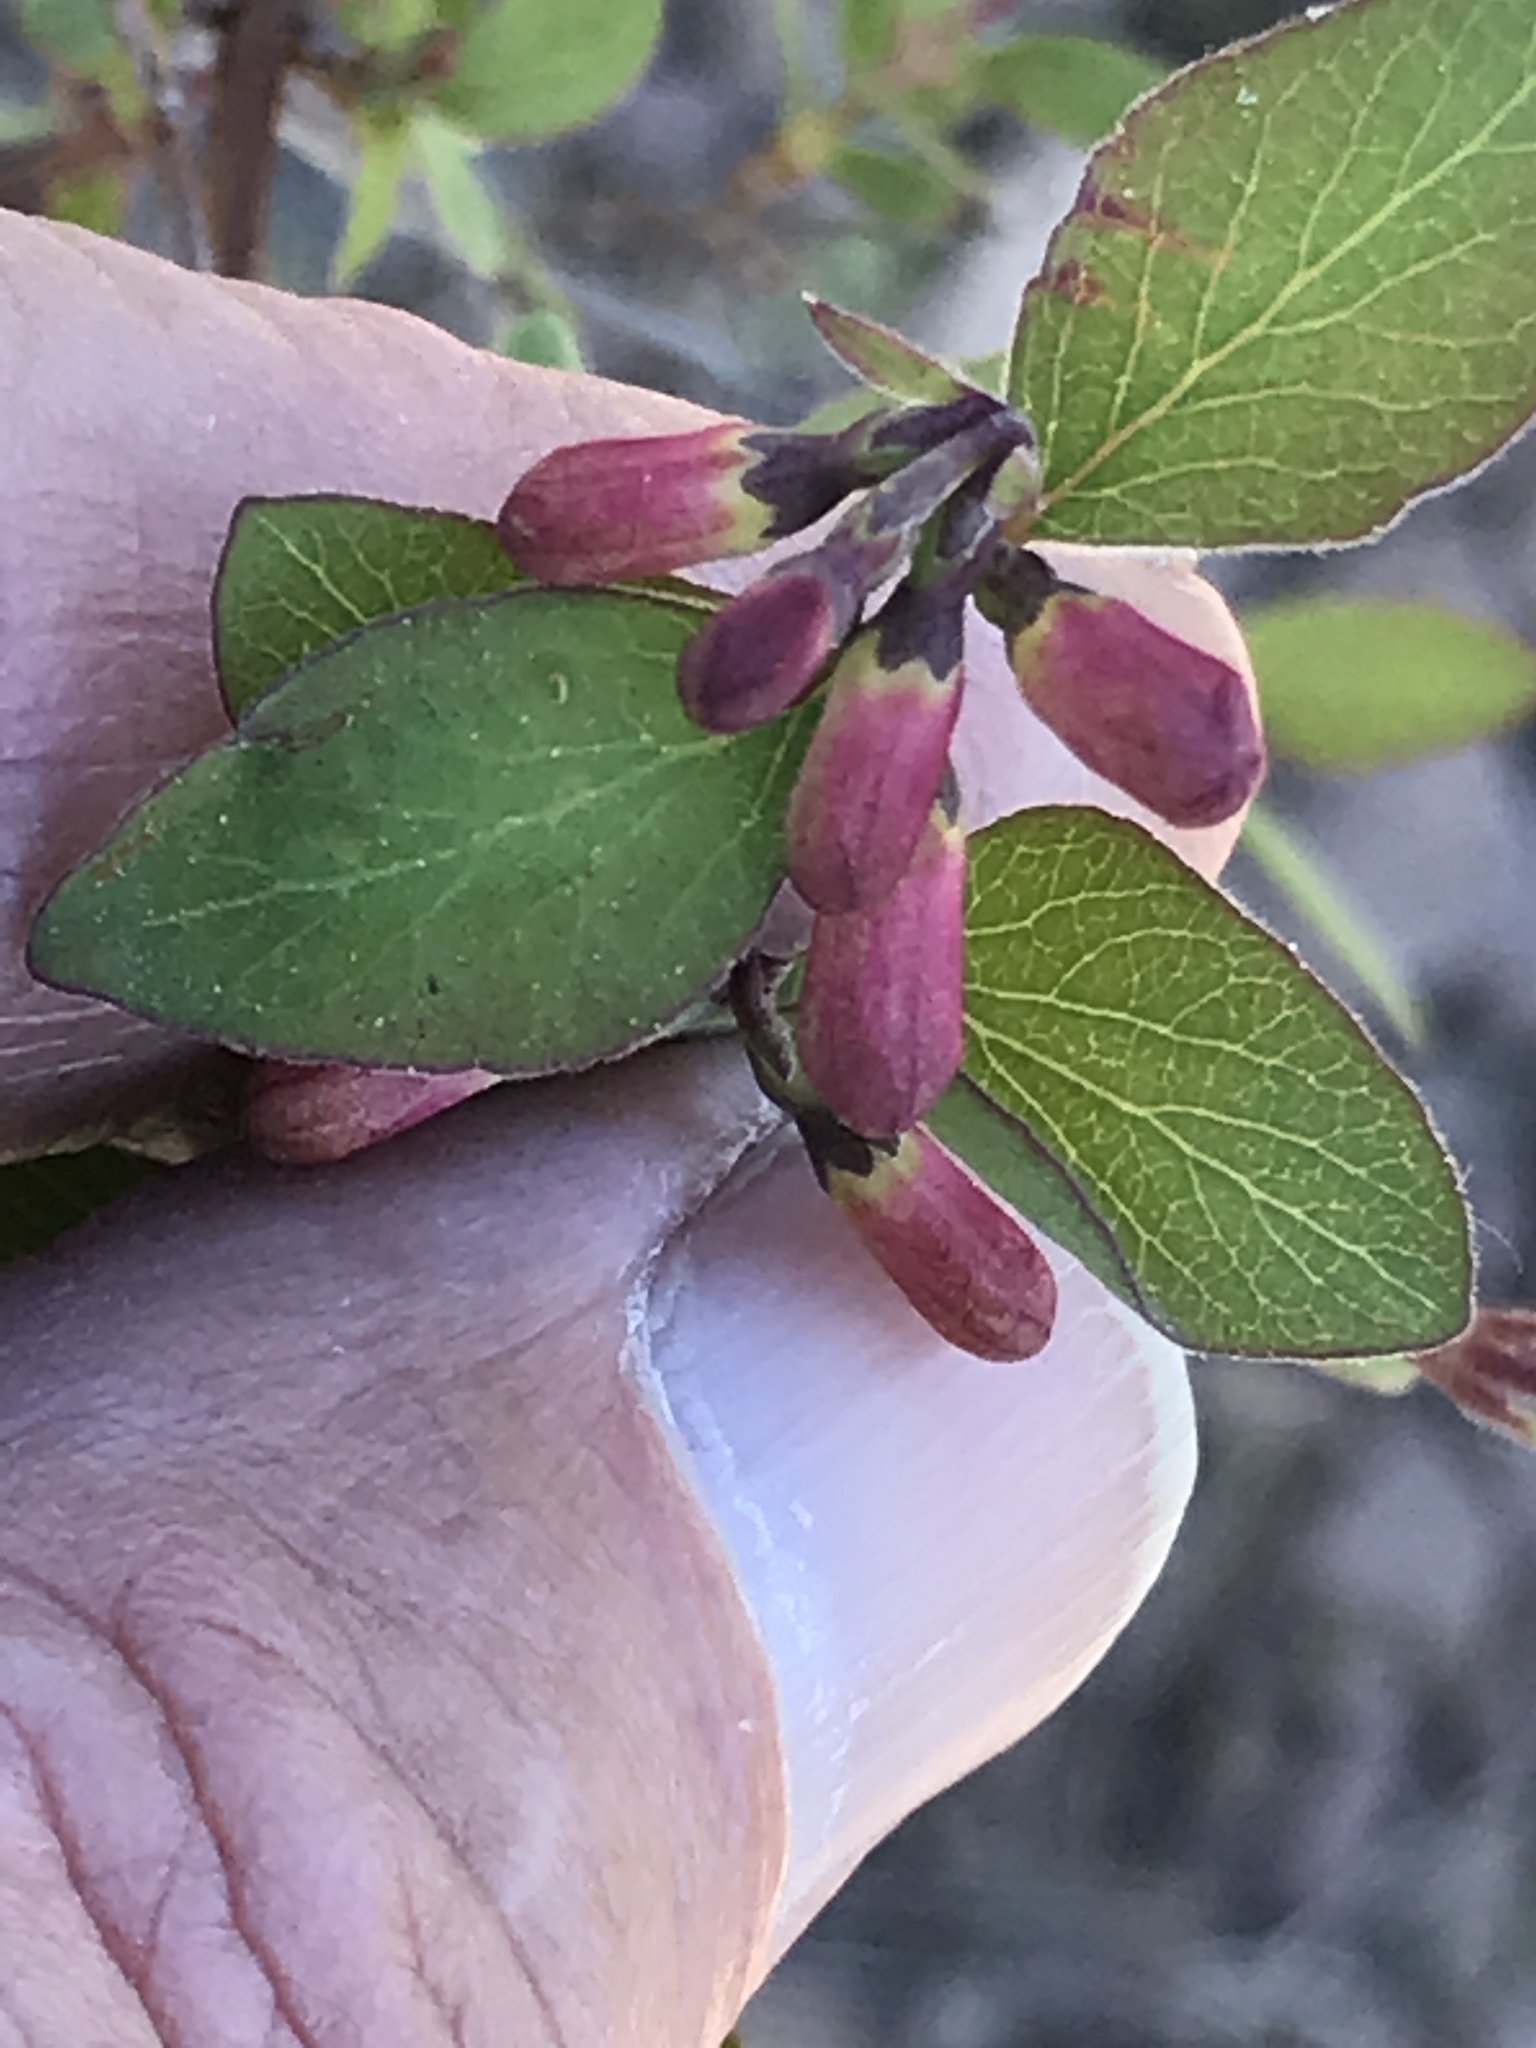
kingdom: Plantae
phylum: Tracheophyta
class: Magnoliopsida
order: Dipsacales
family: Caprifoliaceae
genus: Symphoricarpos
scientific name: Symphoricarpos rotundifolius
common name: Round-leaved snowberry
